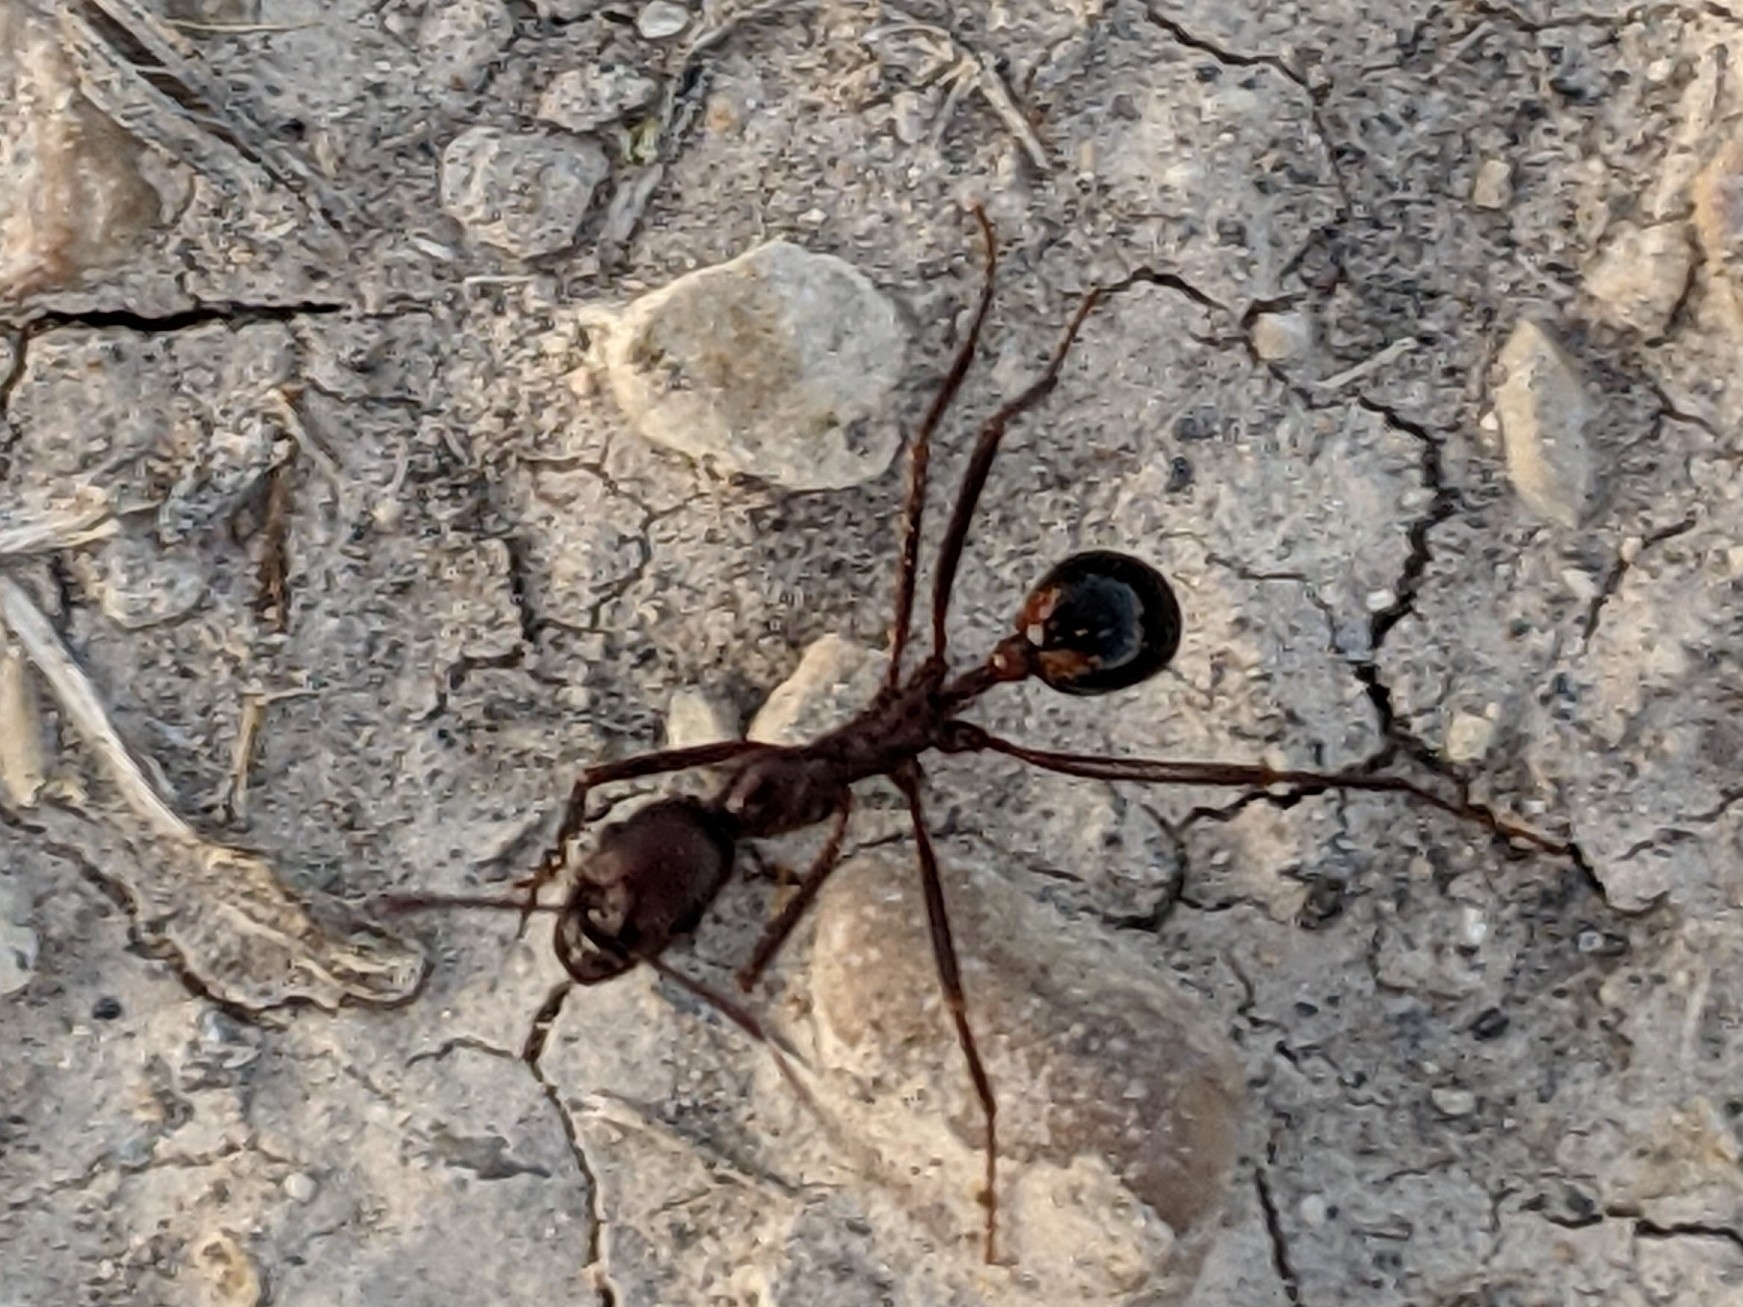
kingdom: Animalia
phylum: Arthropoda
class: Insecta
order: Hymenoptera
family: Formicidae
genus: Novomessor
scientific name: Novomessor cockerelli
